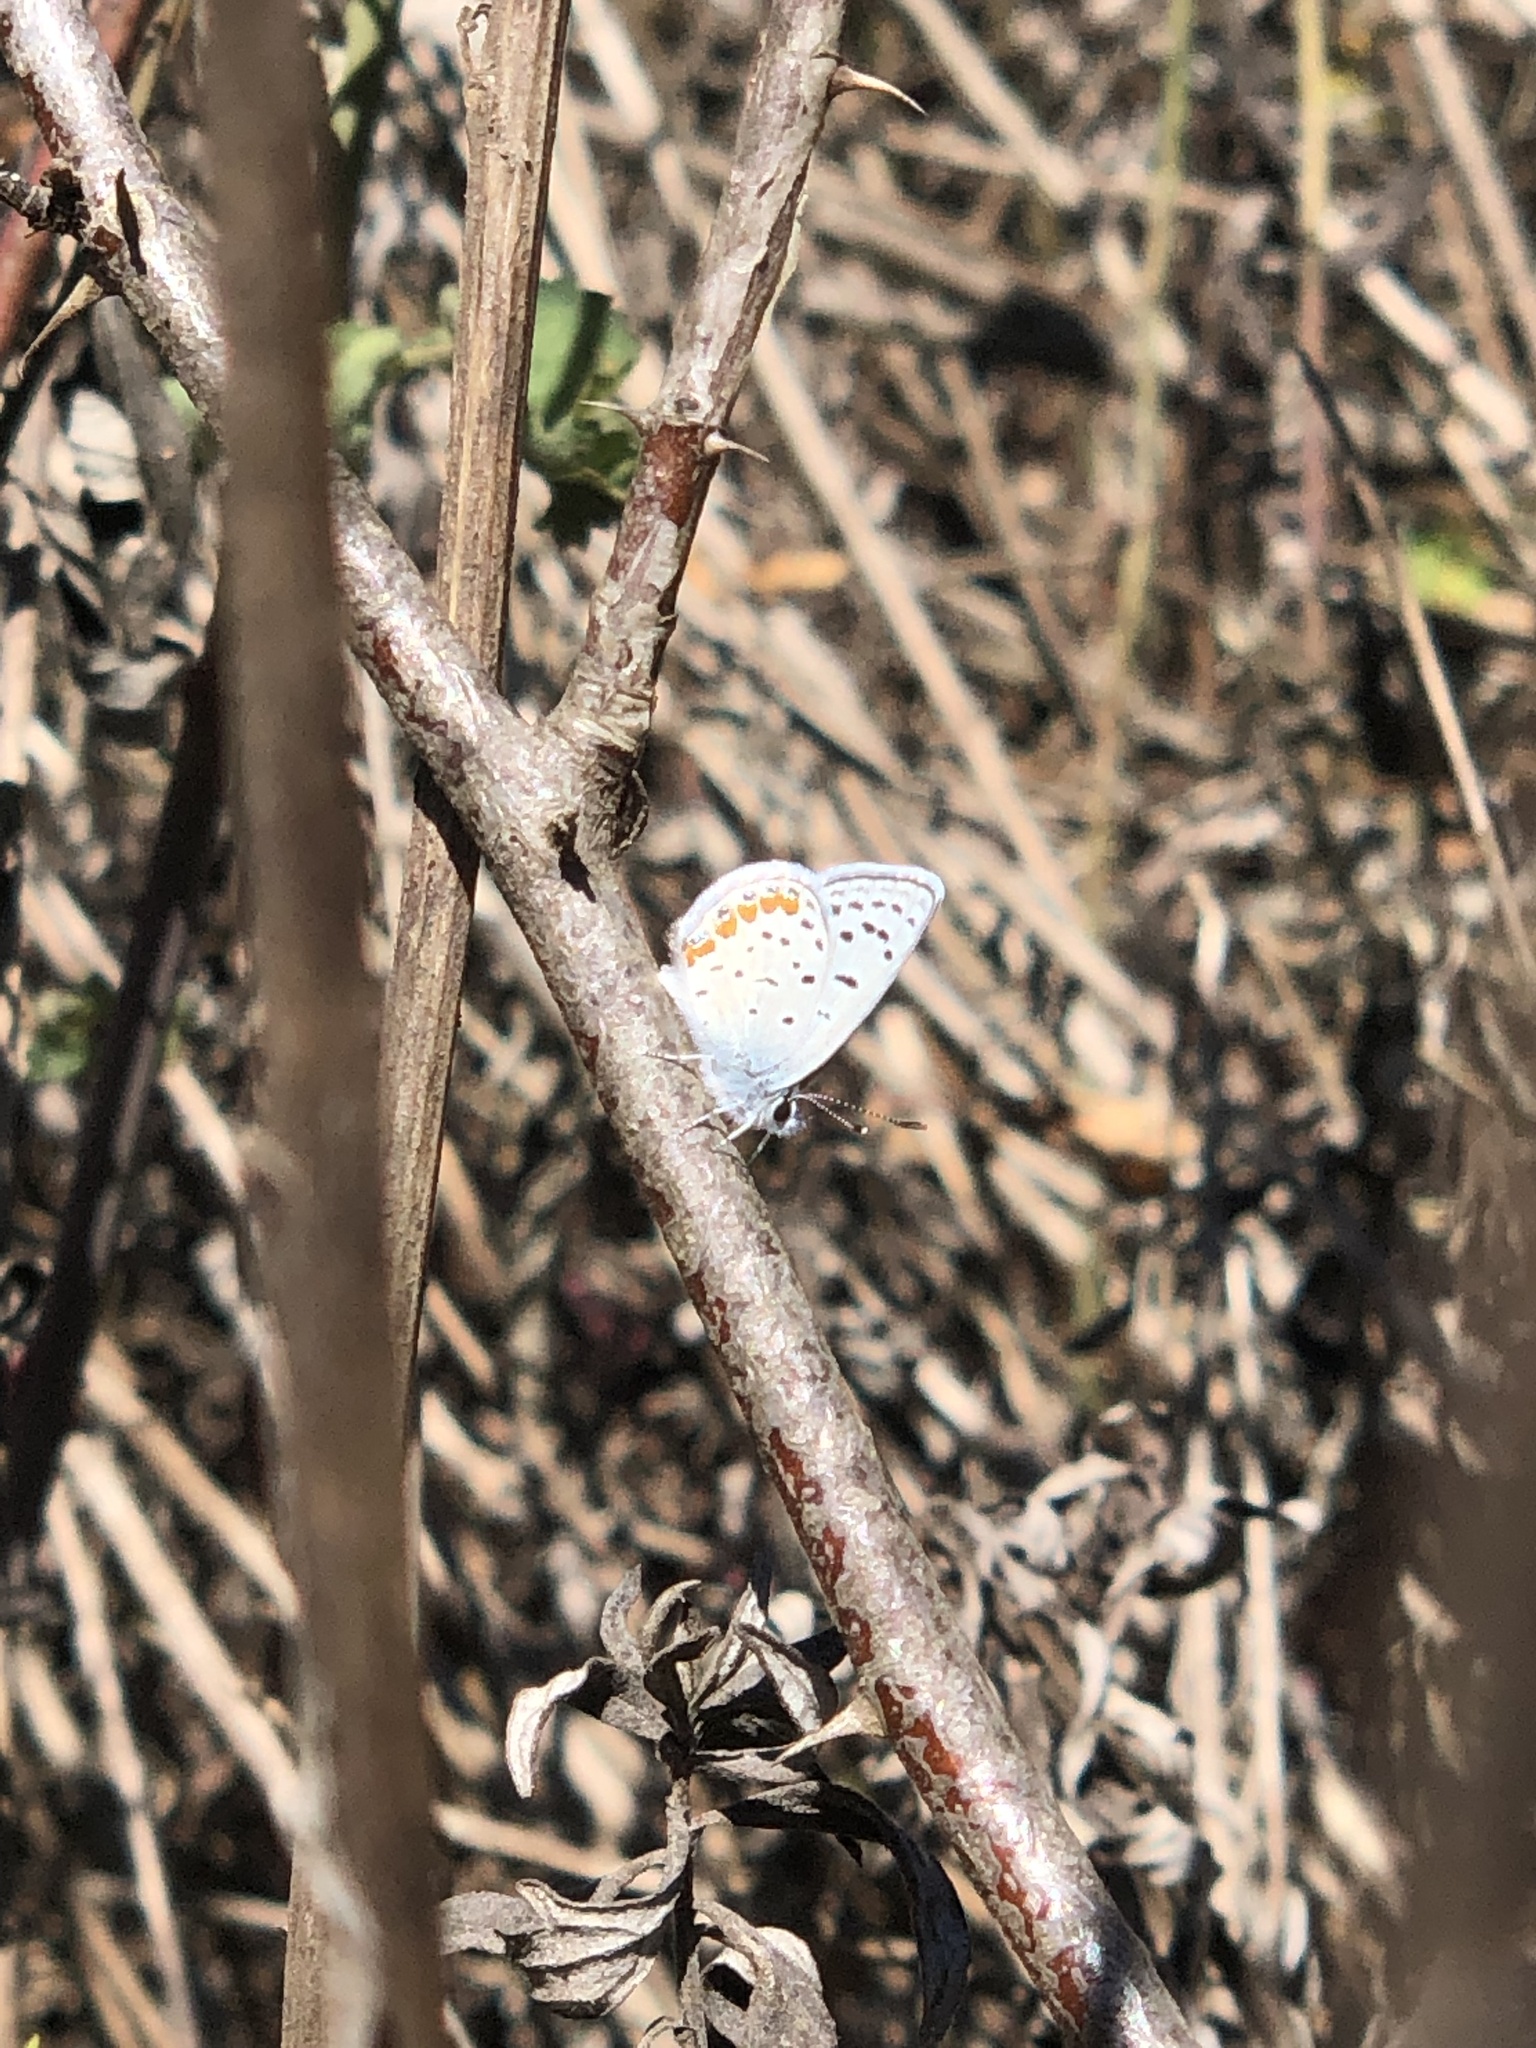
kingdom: Animalia
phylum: Arthropoda
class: Insecta
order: Lepidoptera
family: Lycaenidae
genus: Icaricia
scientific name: Icaricia acmon
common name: Acmon blue
